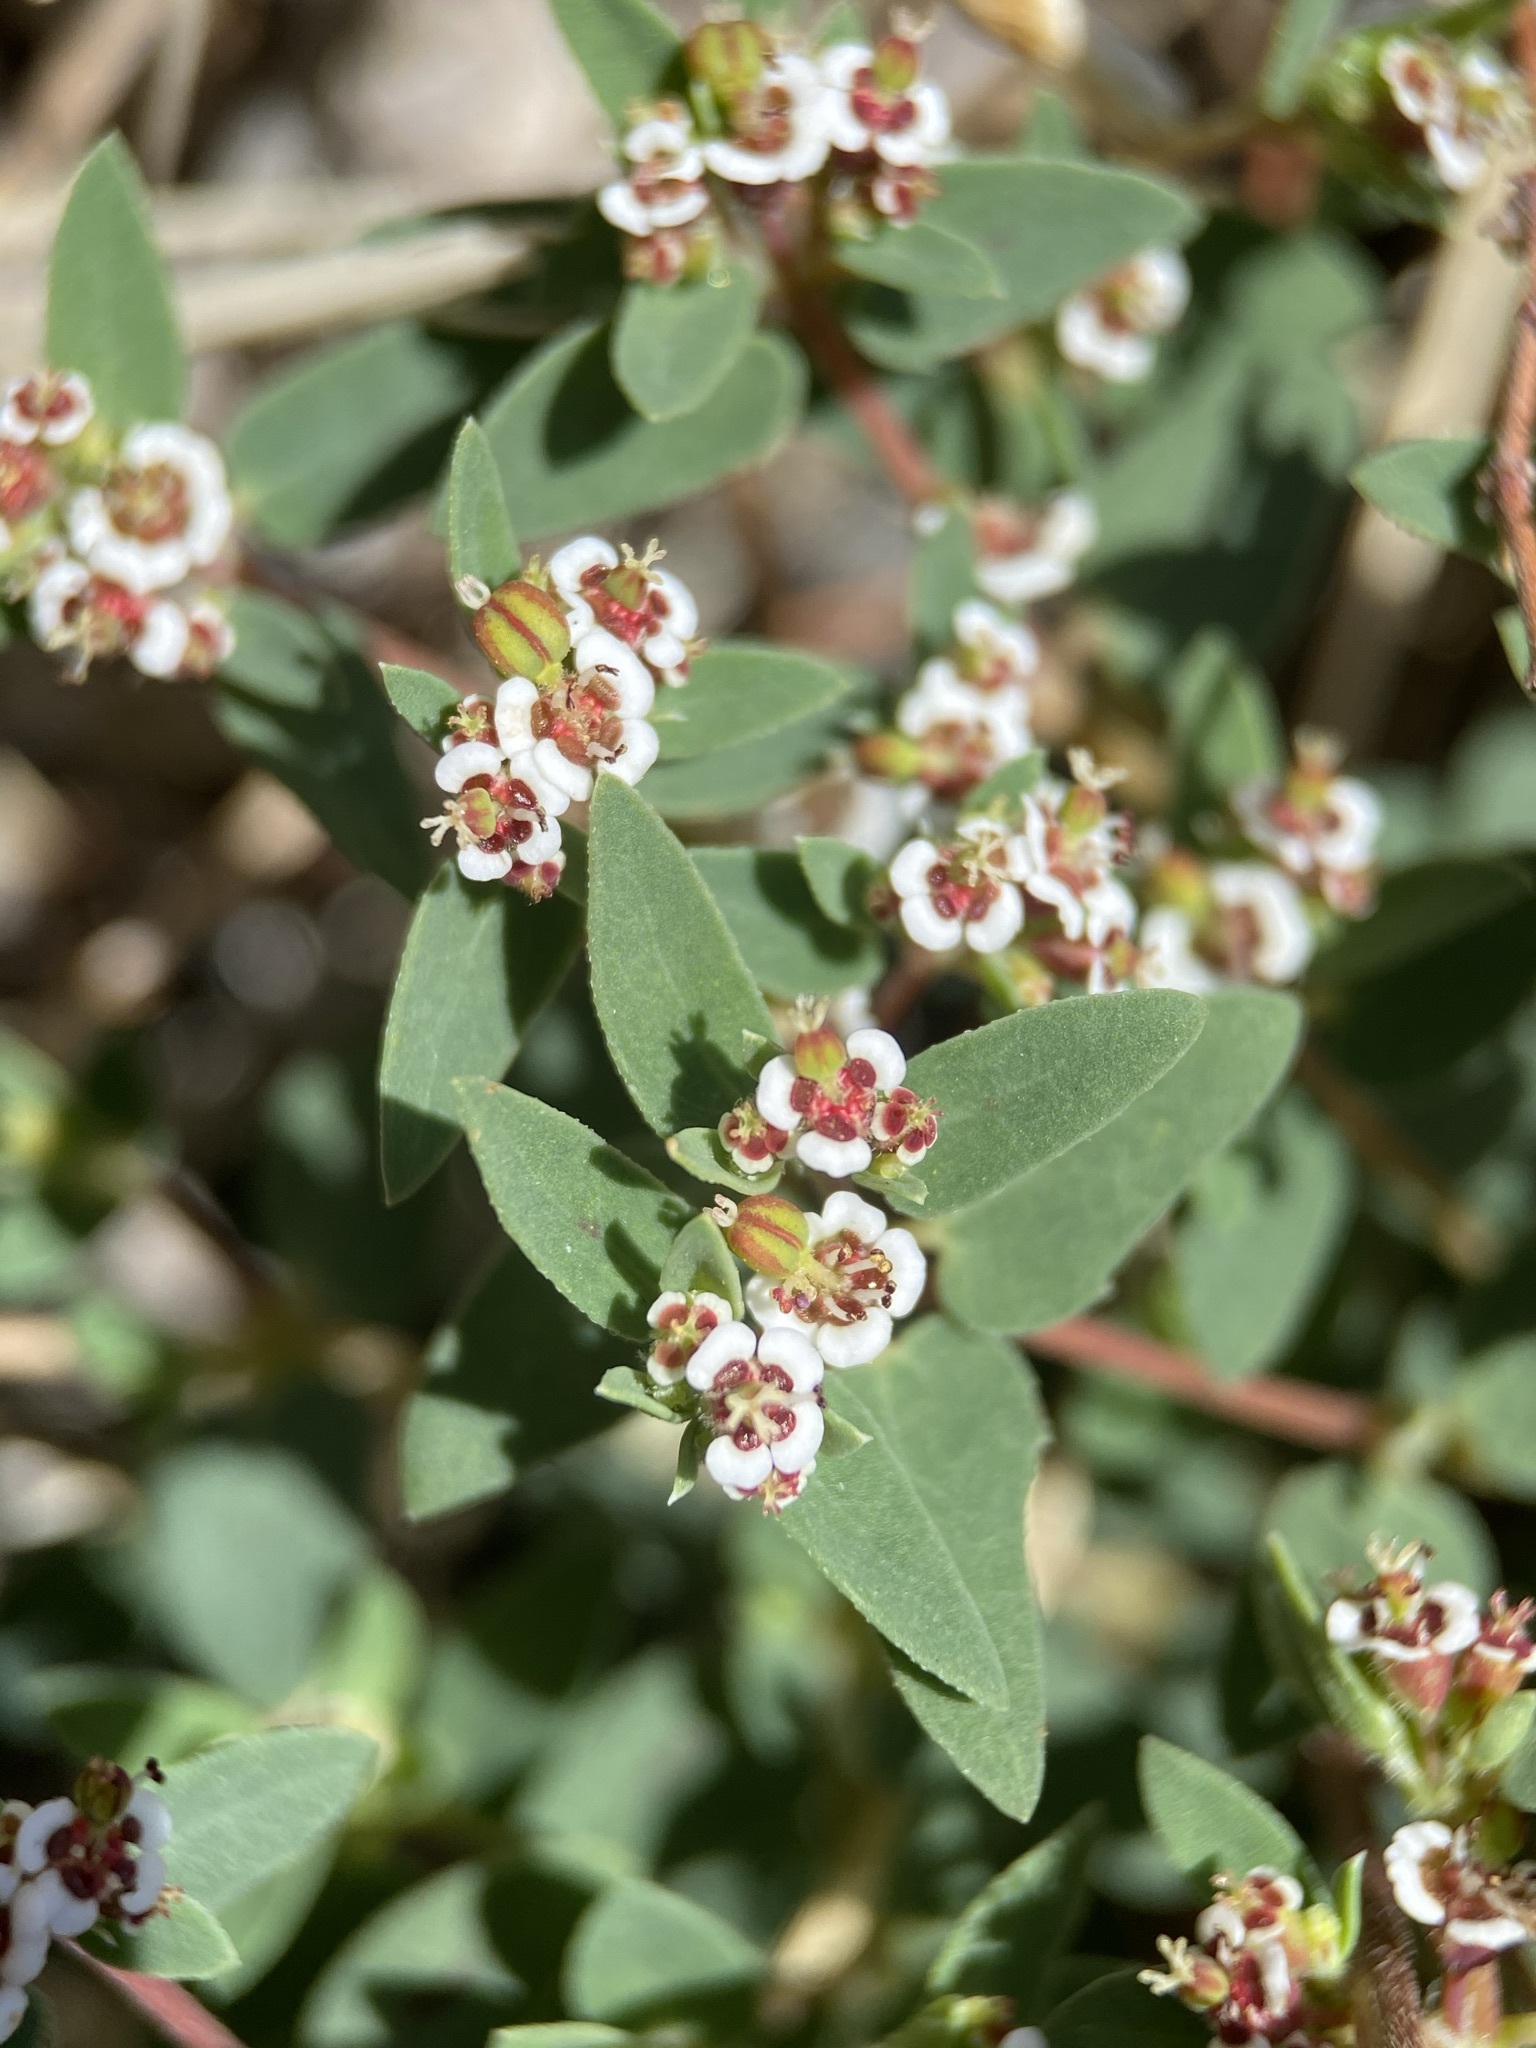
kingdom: Plantae
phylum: Tracheophyta
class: Magnoliopsida
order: Malpighiales
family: Euphorbiaceae
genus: Euphorbia
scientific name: Euphorbia capitellata
